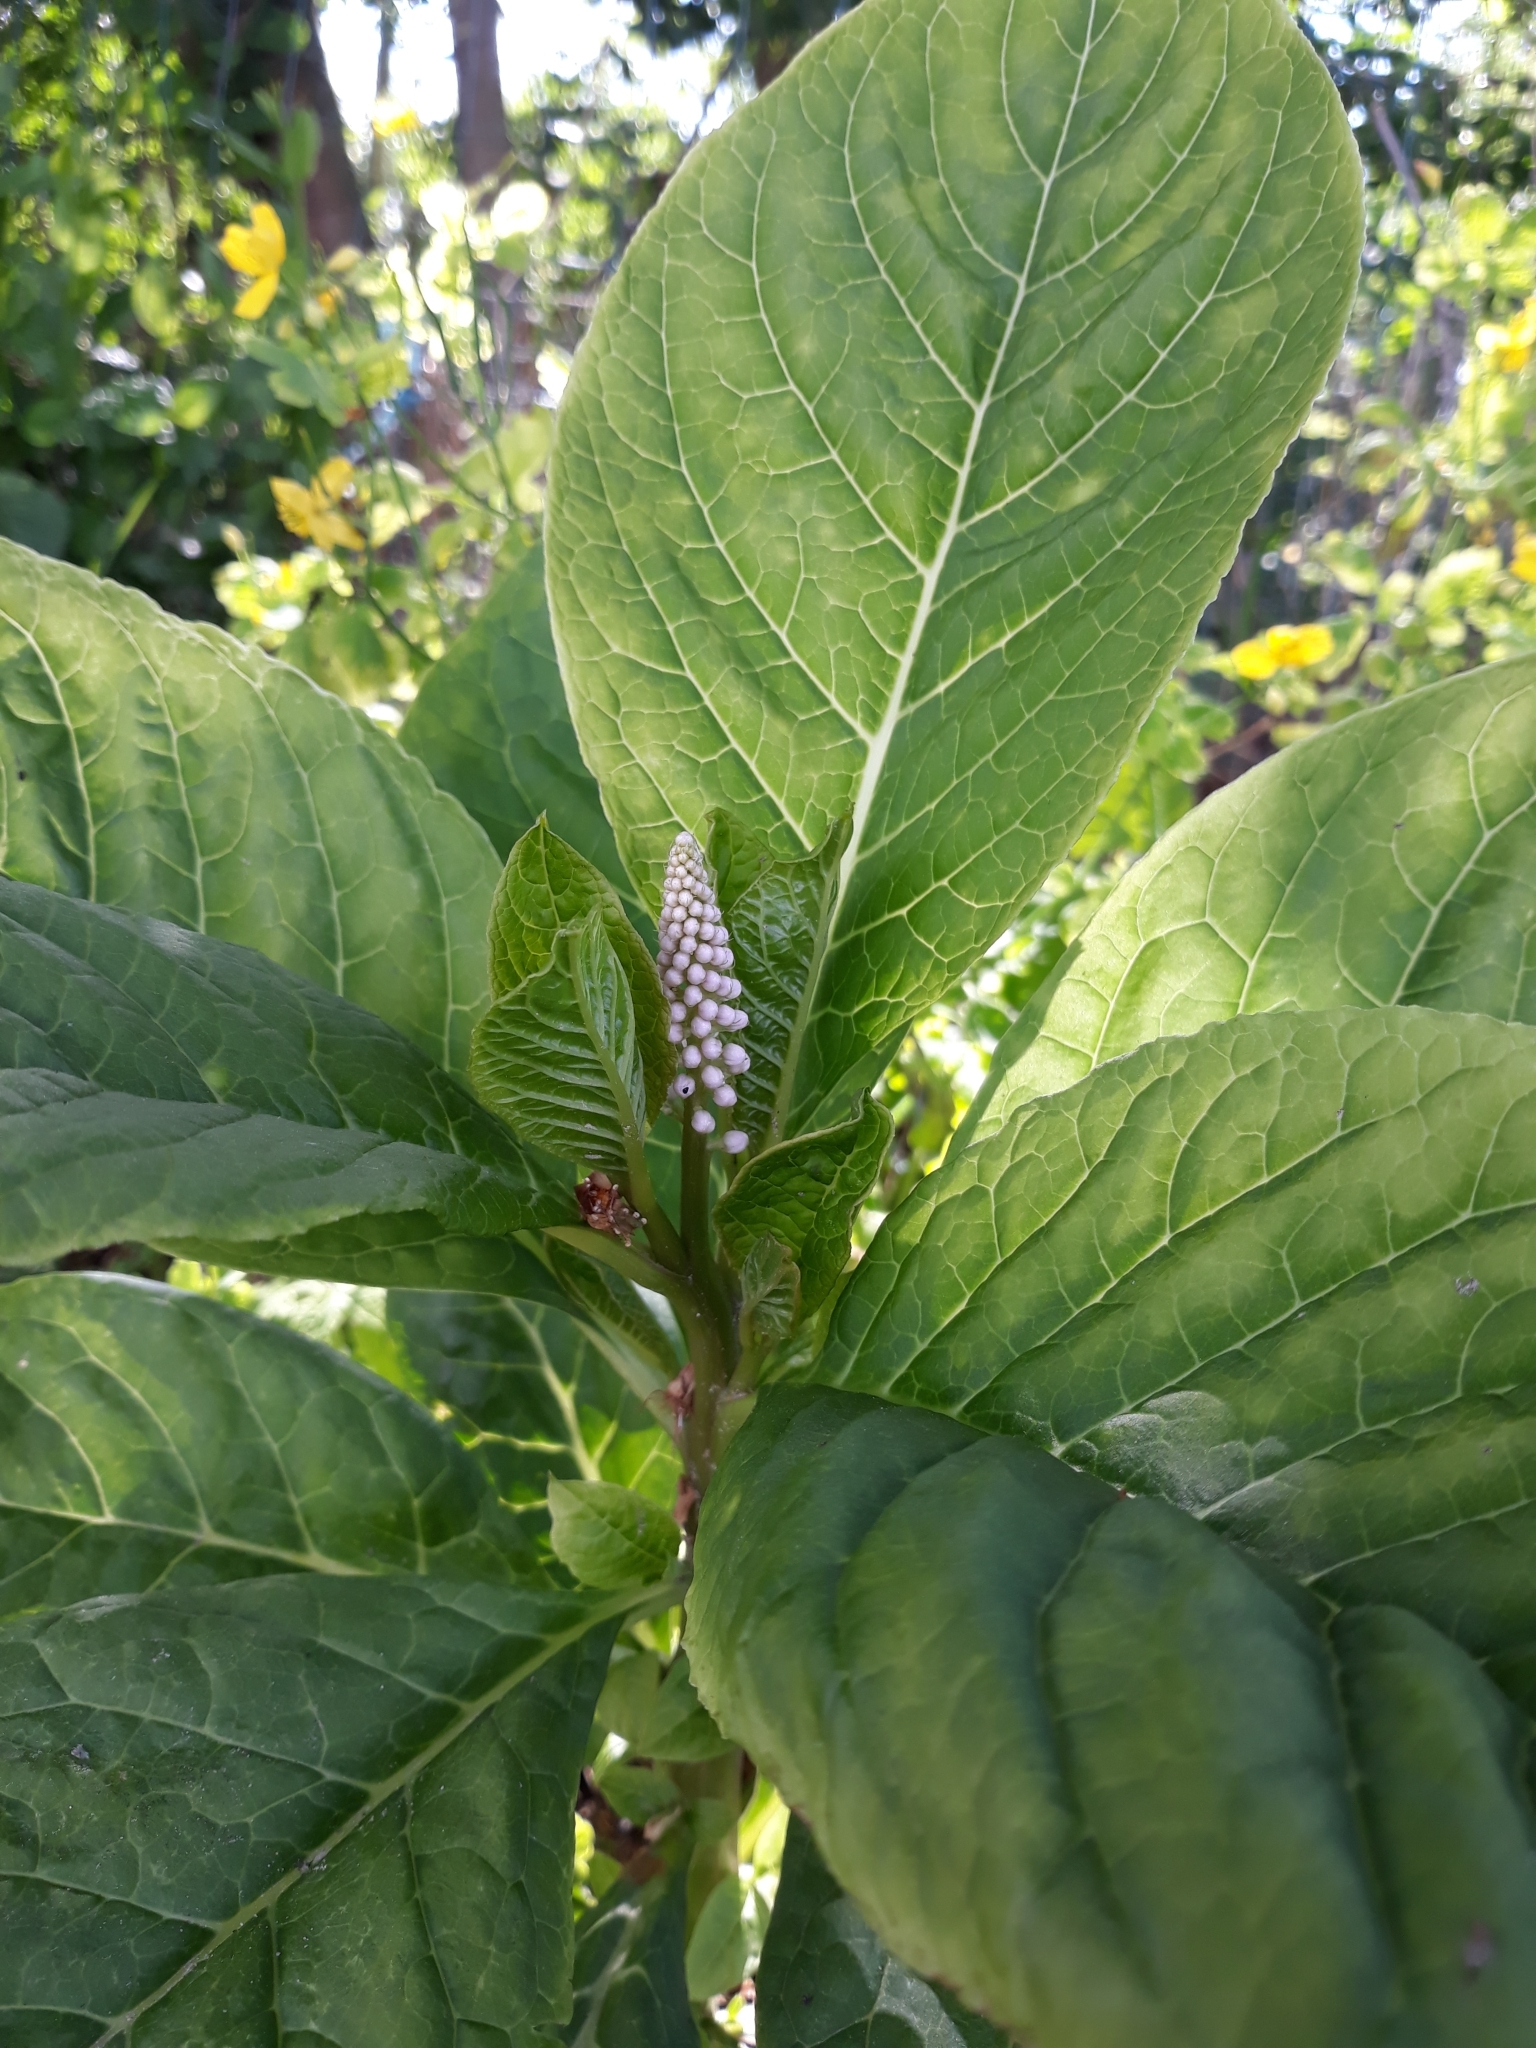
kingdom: Plantae
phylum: Tracheophyta
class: Magnoliopsida
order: Caryophyllales
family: Phytolaccaceae
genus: Phytolacca
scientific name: Phytolacca acinosa
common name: Indian pokeweed
